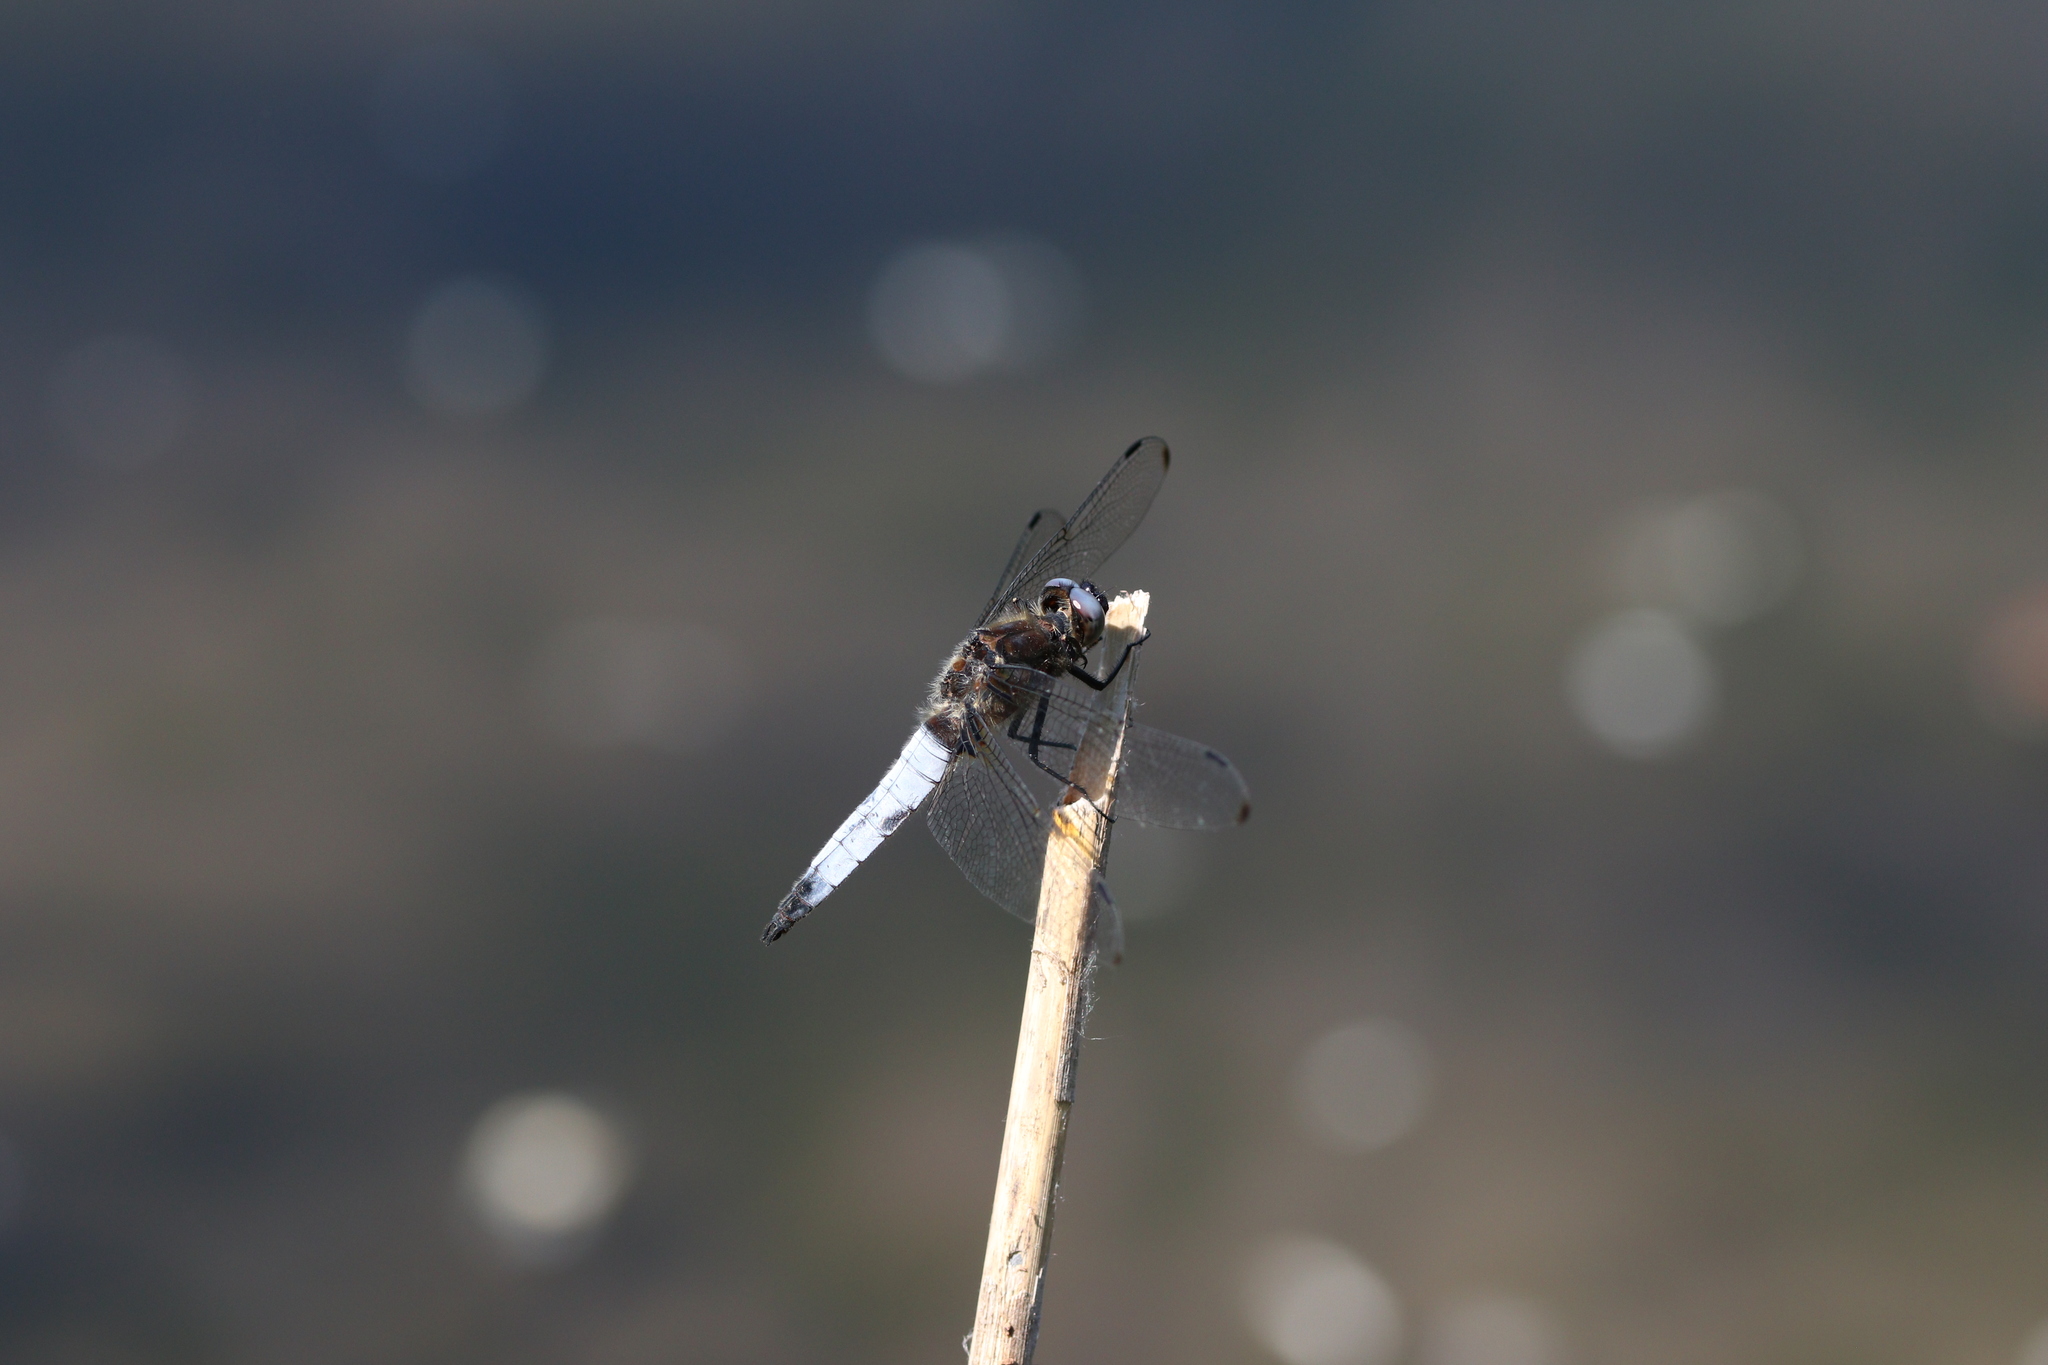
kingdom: Animalia
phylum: Arthropoda
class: Insecta
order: Odonata
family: Libellulidae
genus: Libellula
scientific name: Libellula fulva
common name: Blue chaser
